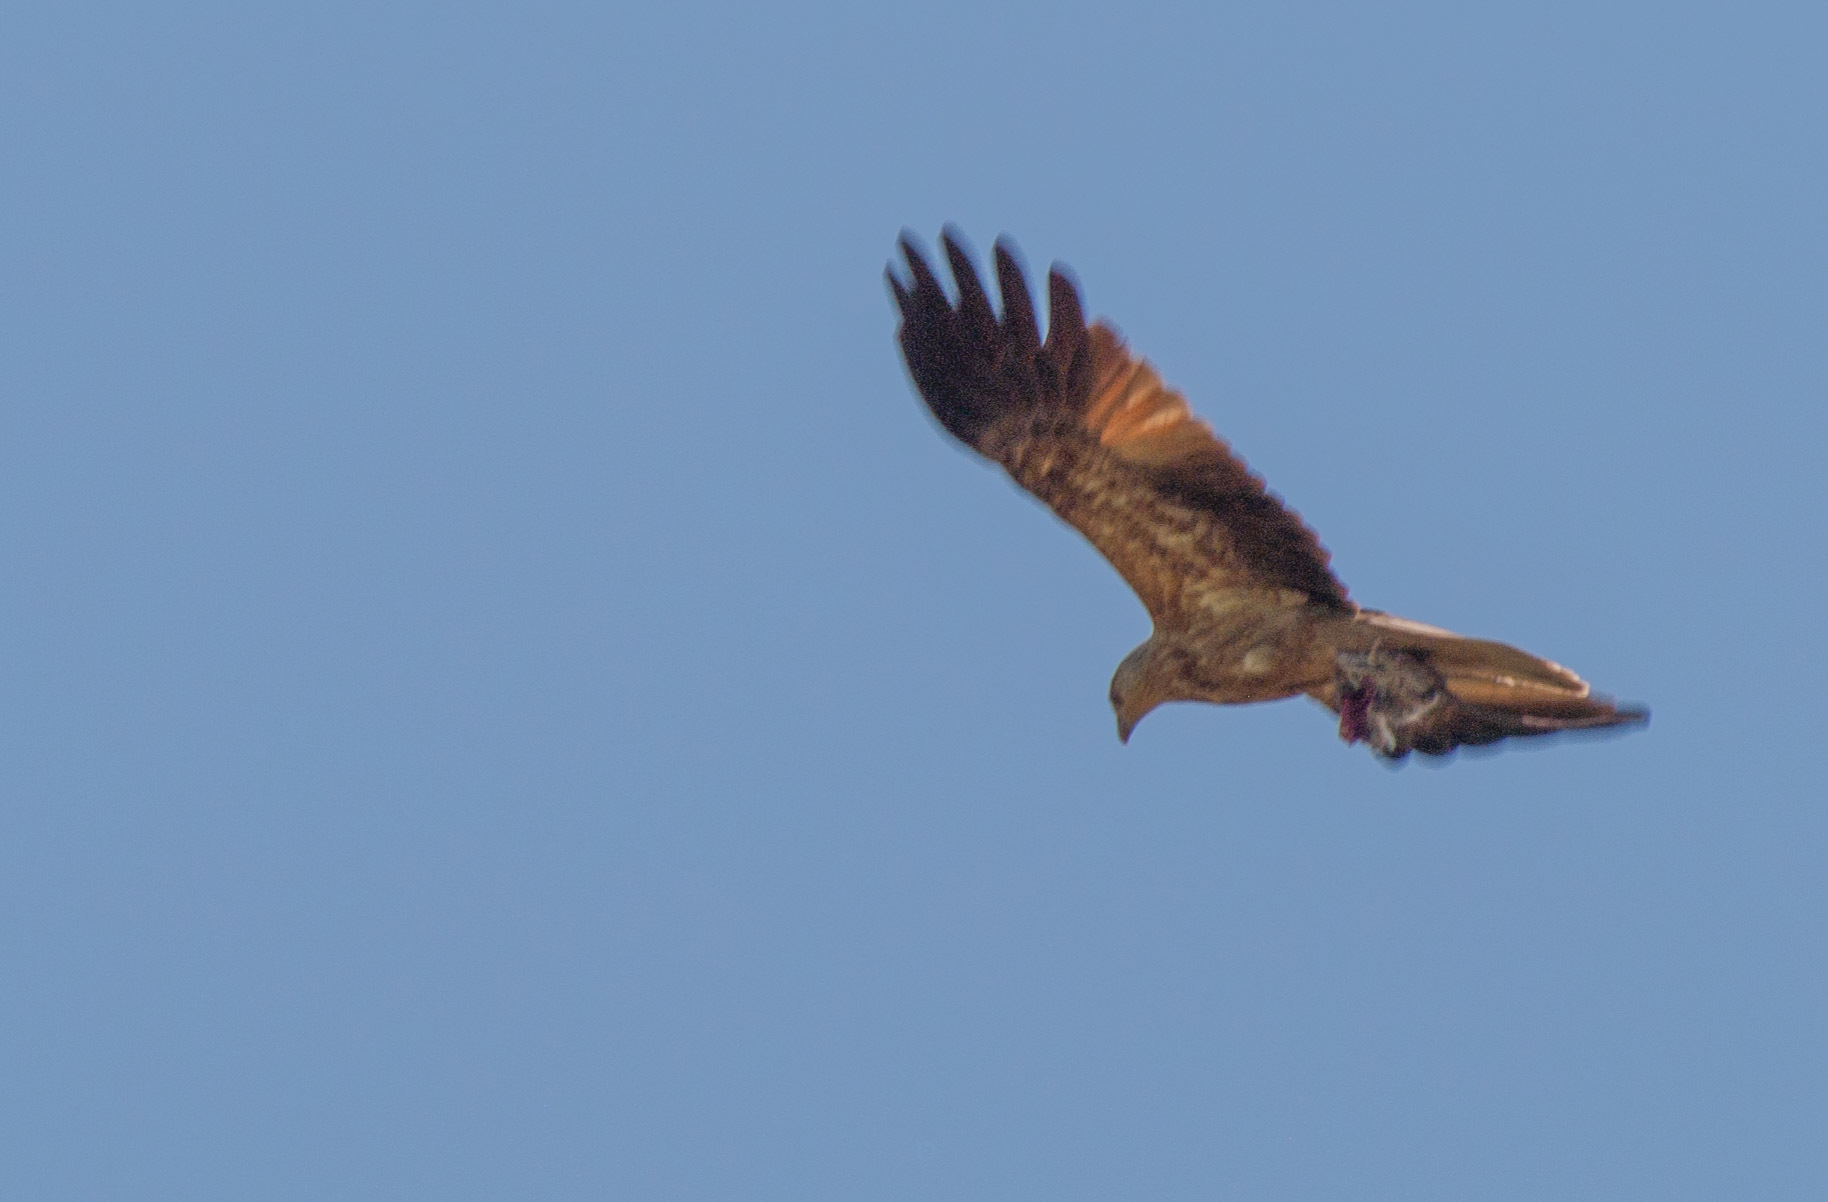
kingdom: Animalia
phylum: Chordata
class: Aves
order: Accipitriformes
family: Accipitridae
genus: Haliastur
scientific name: Haliastur sphenurus
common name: Whistling kite
